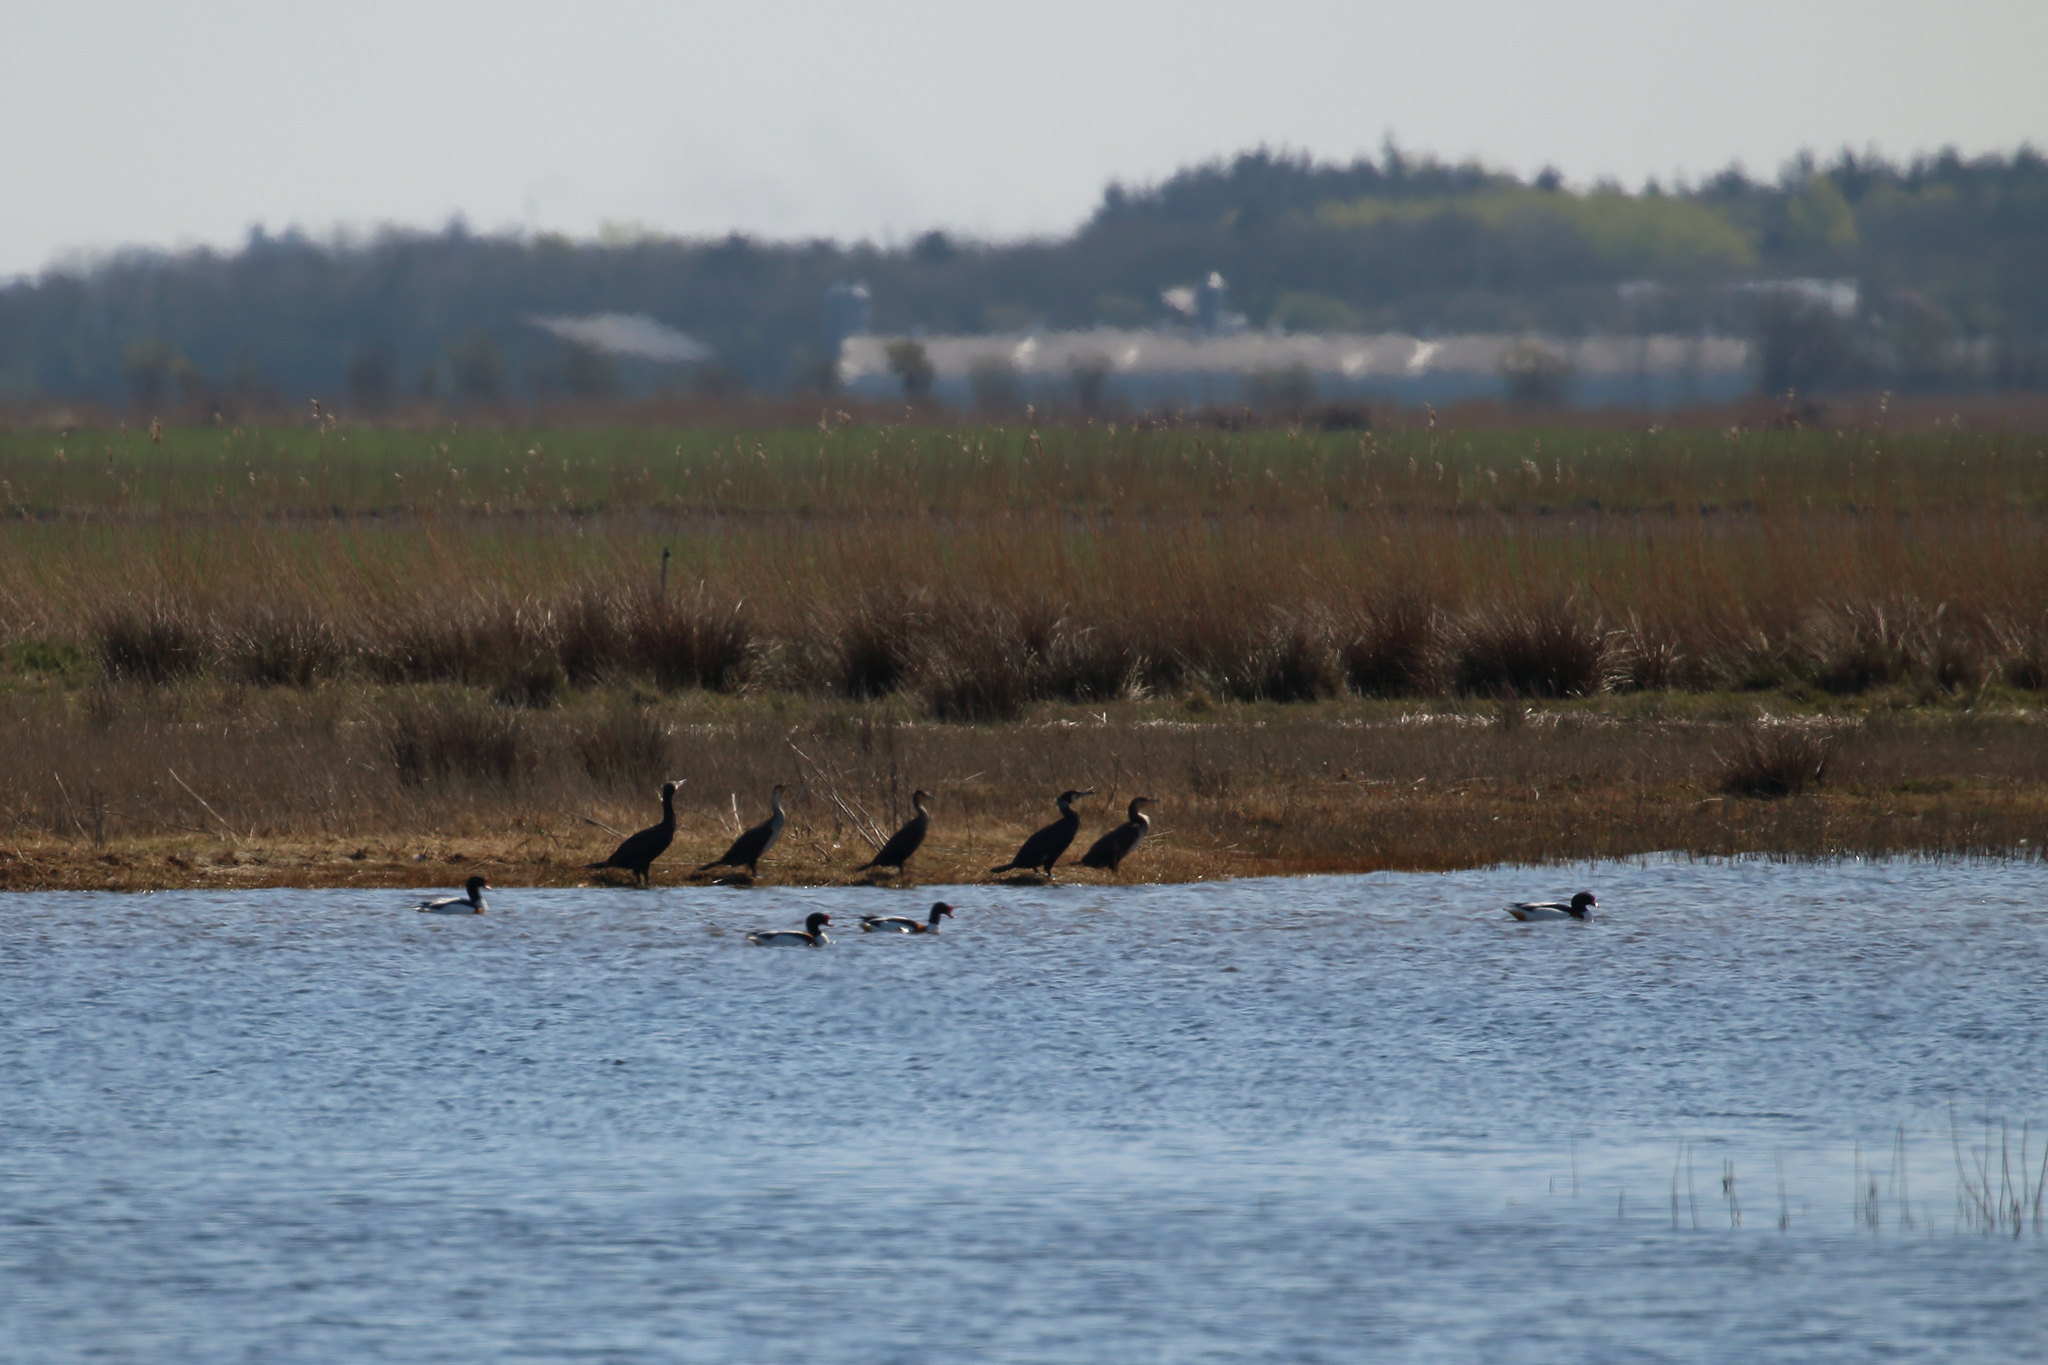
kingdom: Animalia
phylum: Chordata
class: Aves
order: Suliformes
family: Phalacrocoracidae
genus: Phalacrocorax
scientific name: Phalacrocorax carbo
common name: Great cormorant
